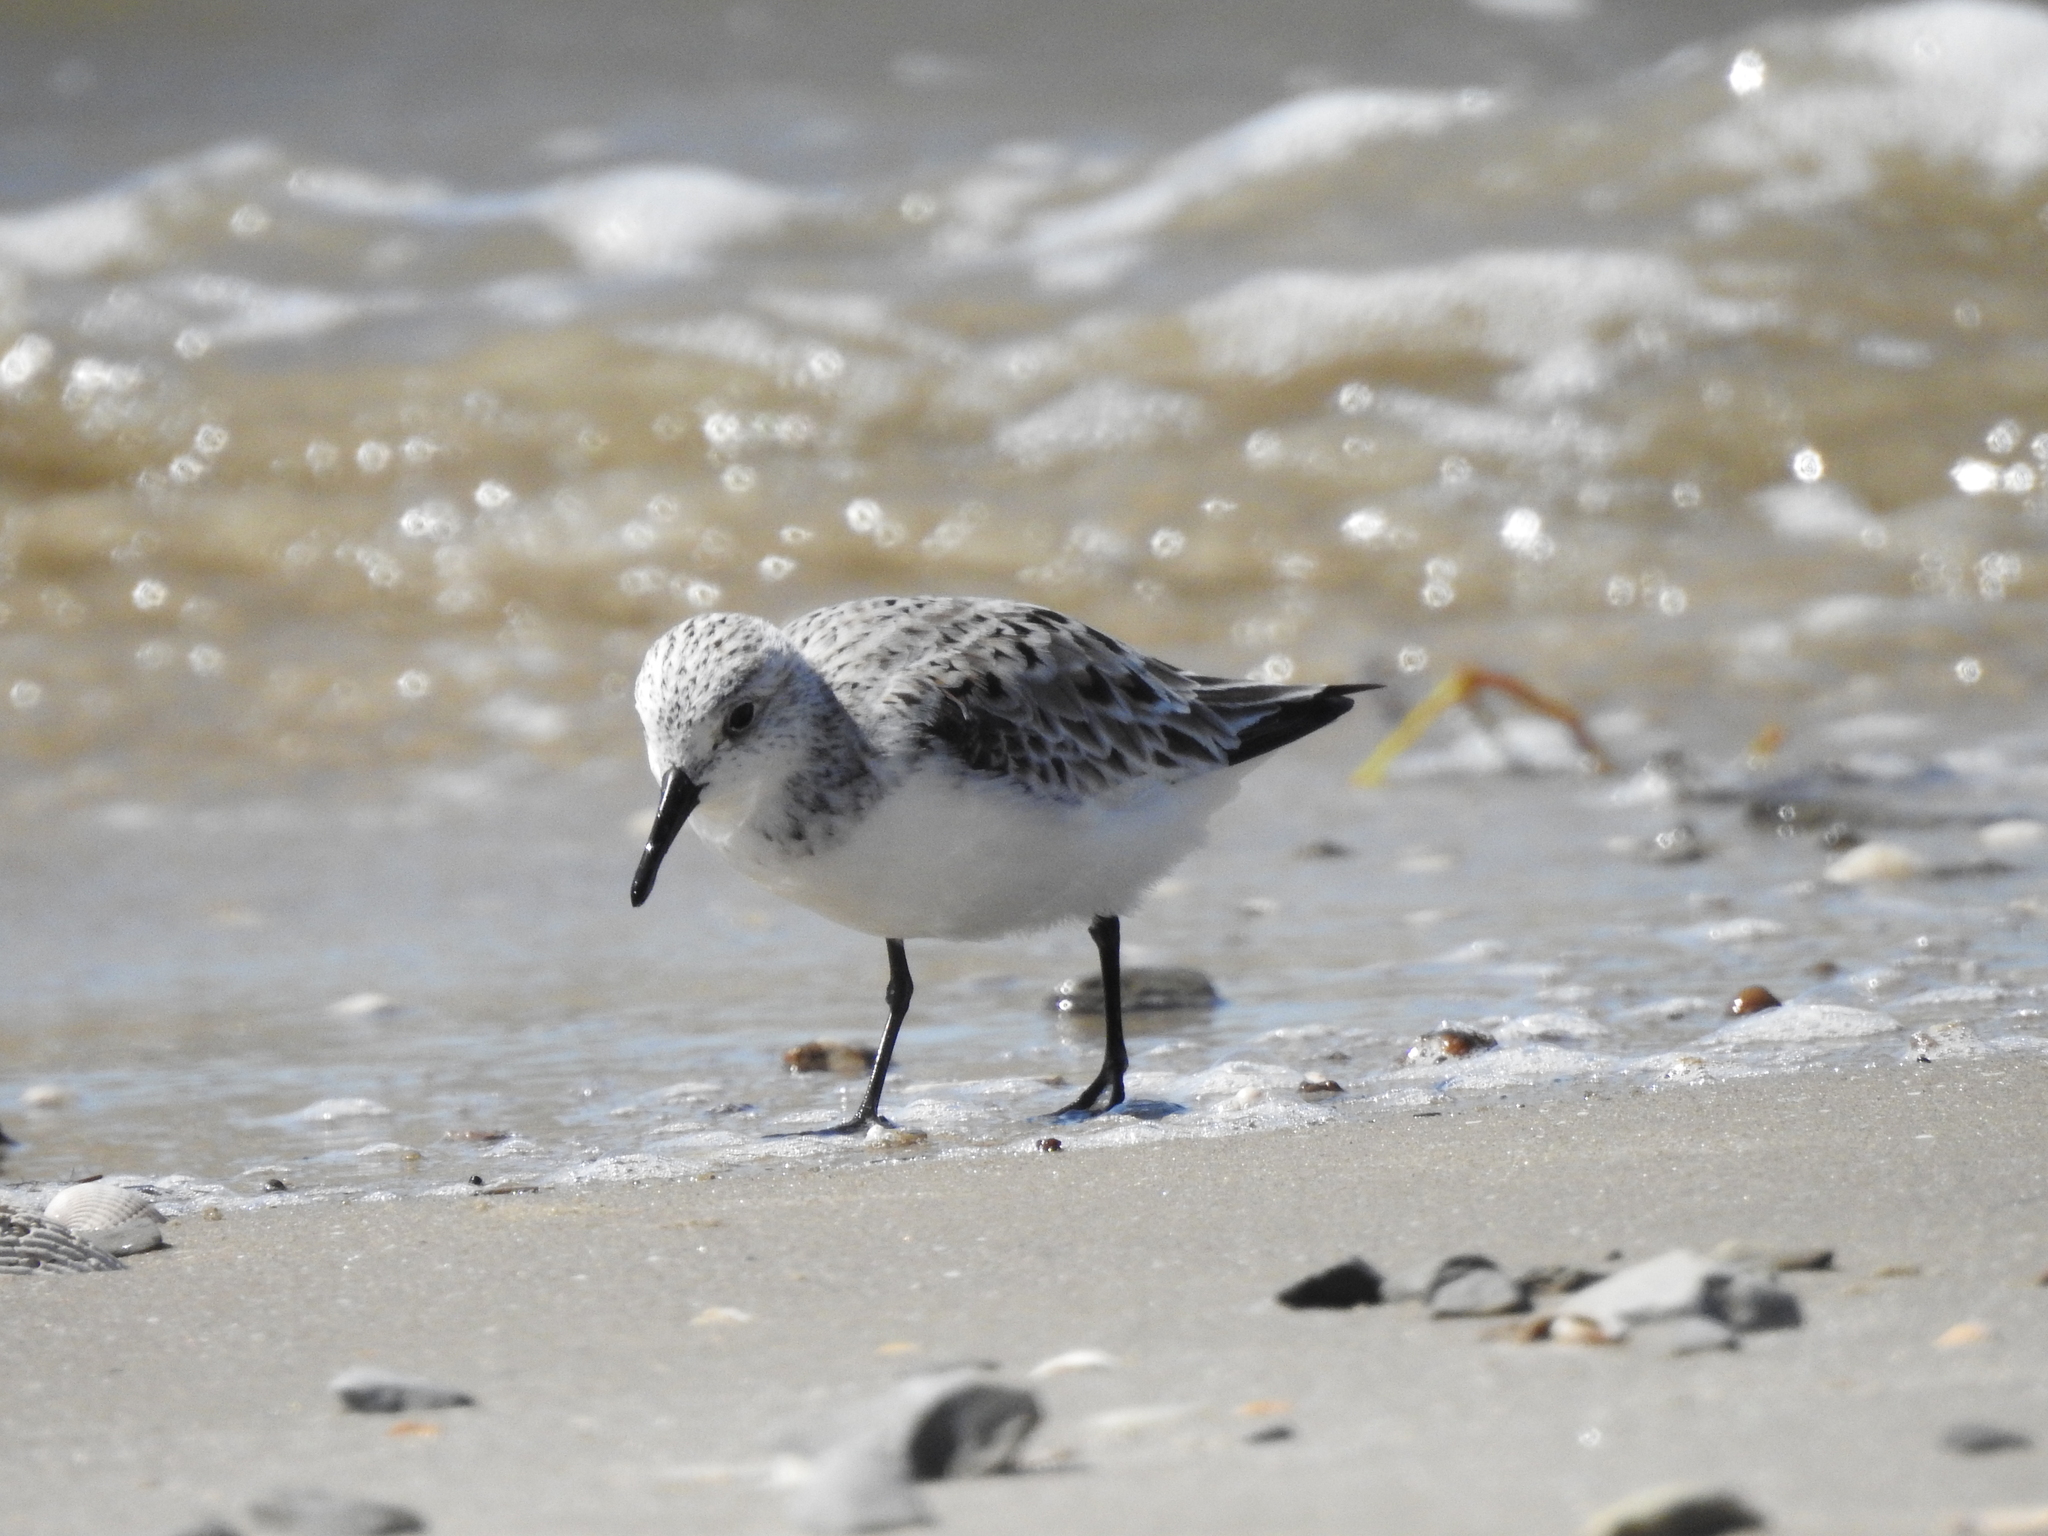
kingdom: Animalia
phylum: Chordata
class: Aves
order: Charadriiformes
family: Scolopacidae
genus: Calidris
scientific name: Calidris alba
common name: Sanderling
